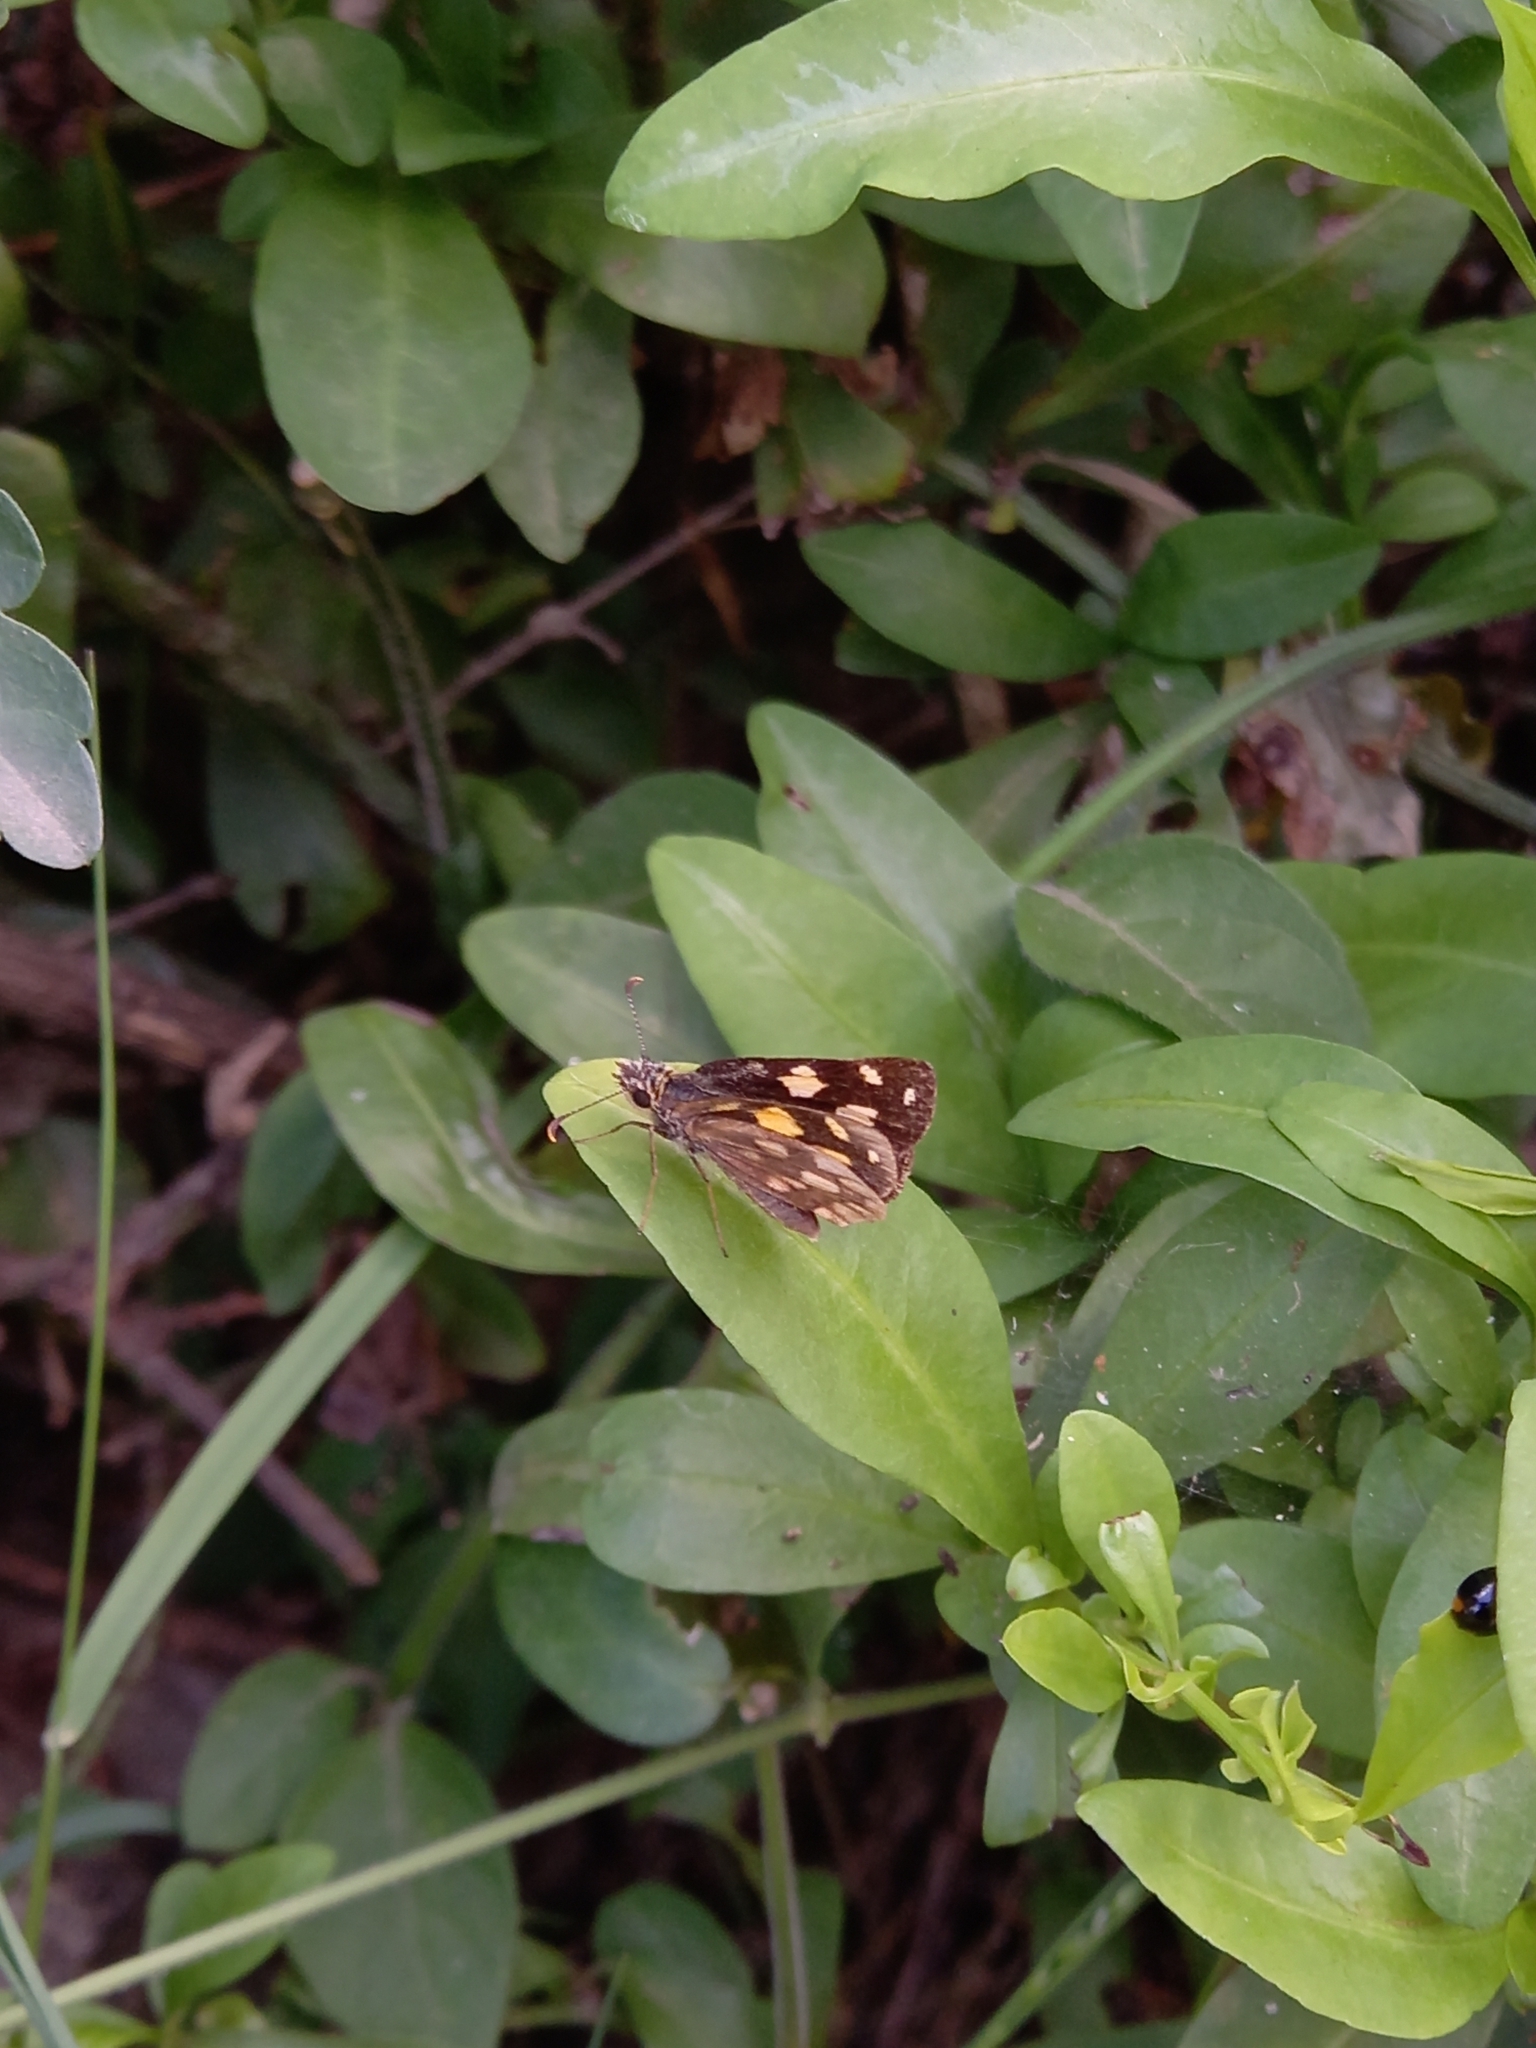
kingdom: Animalia
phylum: Arthropoda
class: Insecta
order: Lepidoptera
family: Hesperiidae
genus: Metisella
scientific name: Metisella metis
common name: Western gold-spotted sylph
